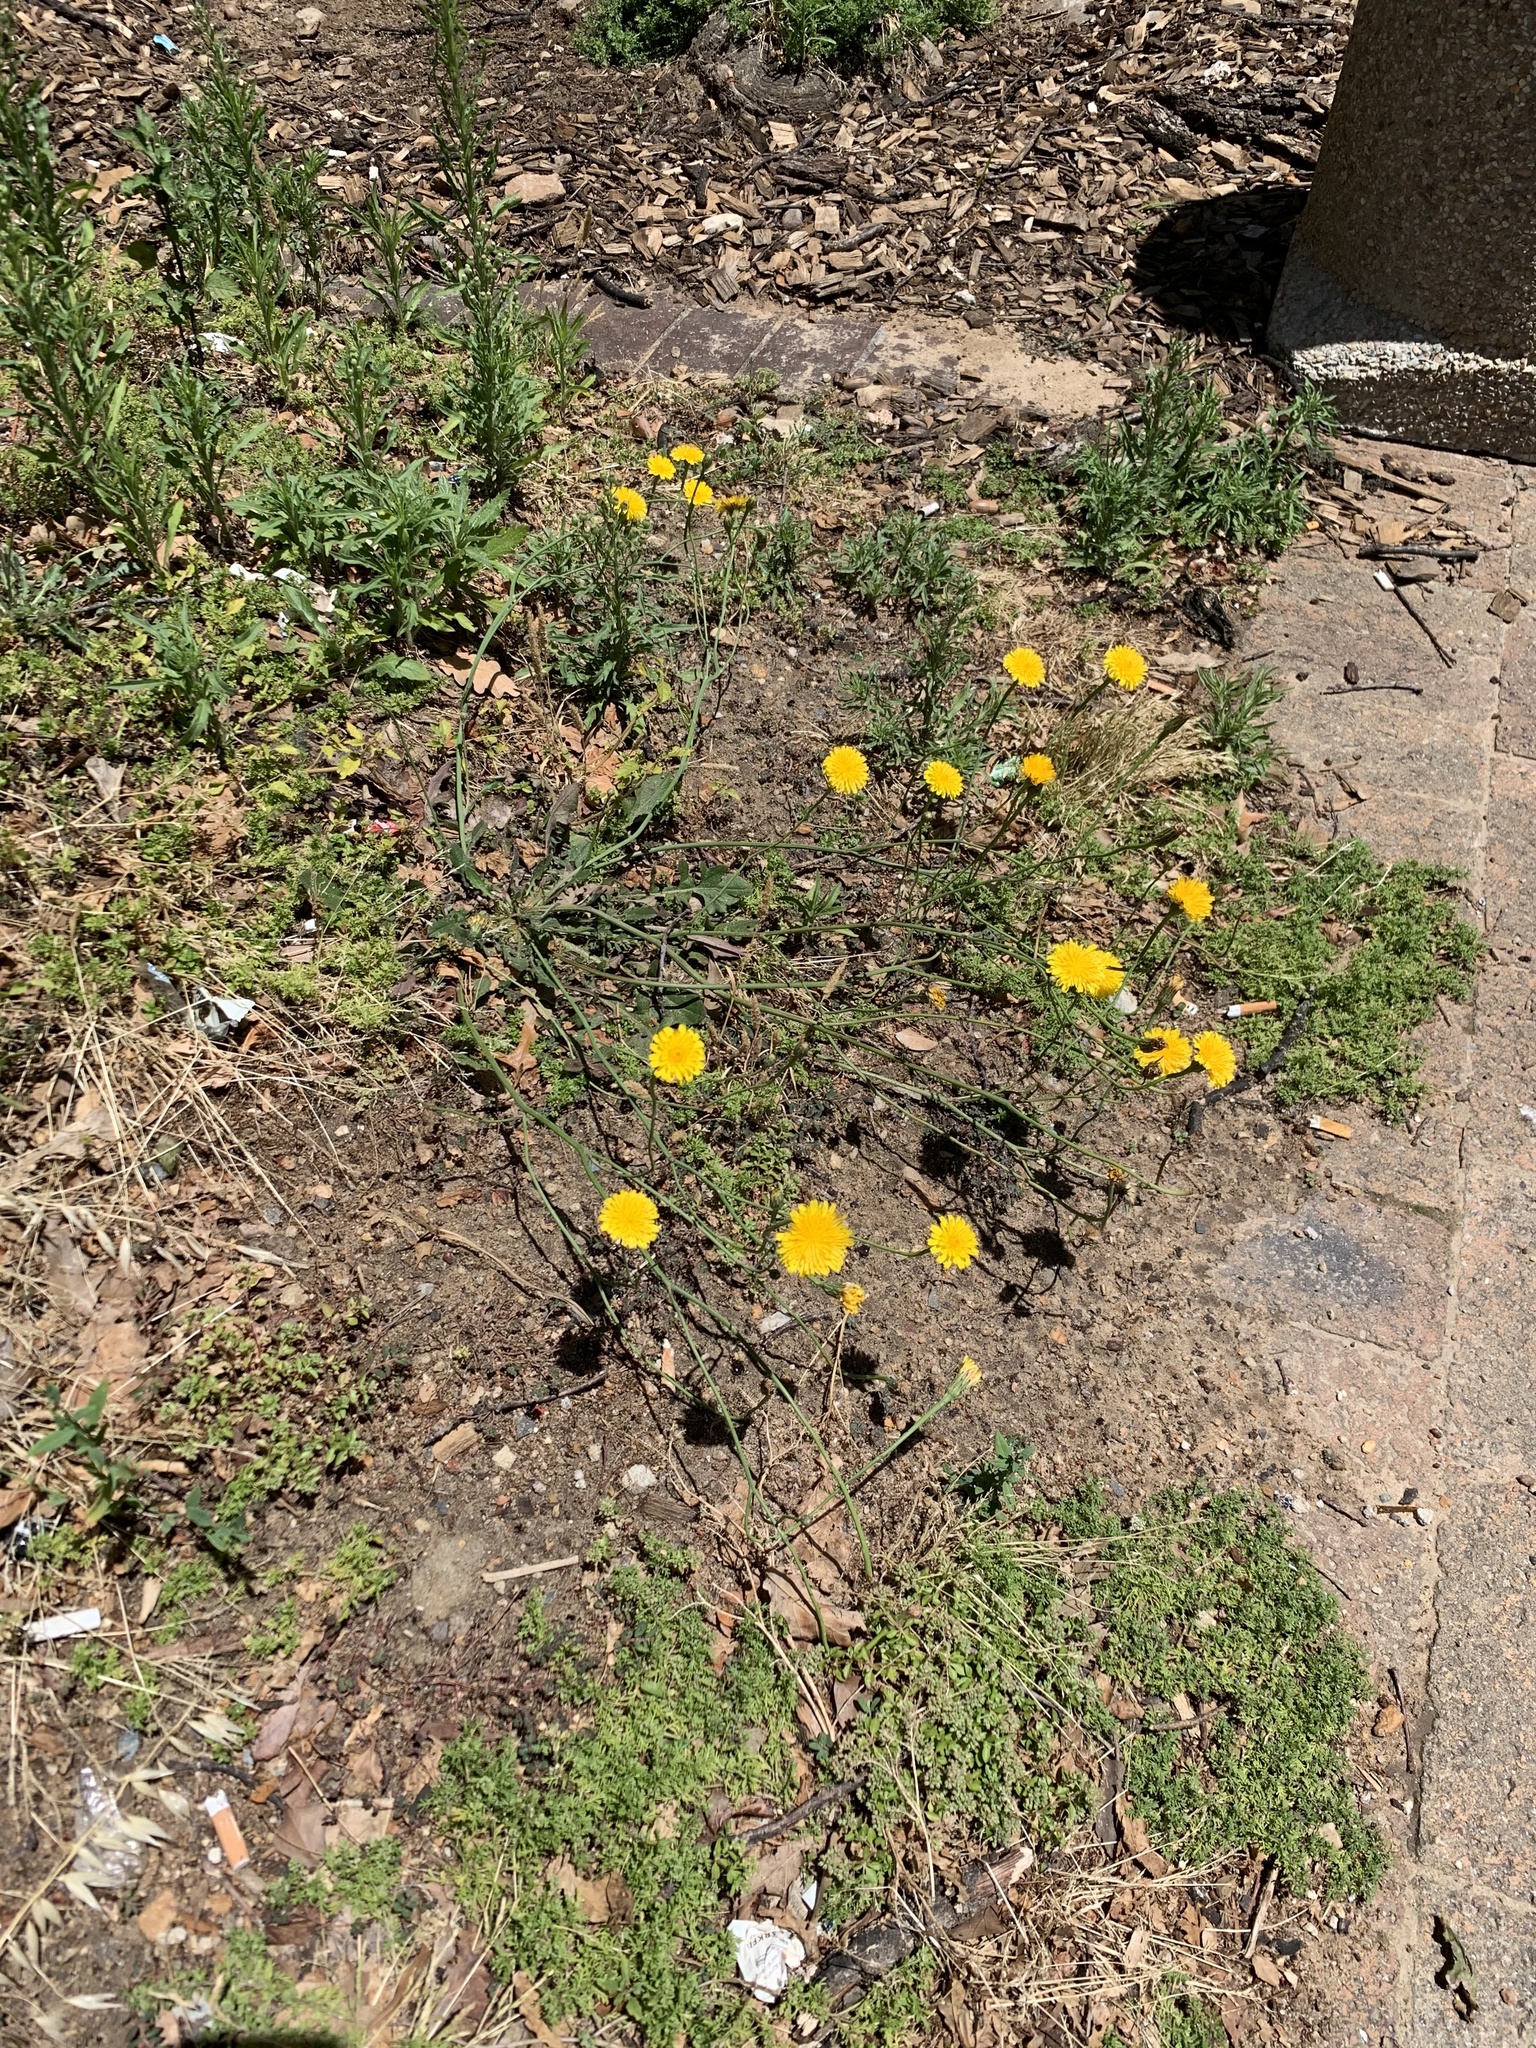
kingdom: Plantae
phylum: Tracheophyta
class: Magnoliopsida
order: Asterales
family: Asteraceae
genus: Hypochaeris
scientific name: Hypochaeris radicata
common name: Flatweed
